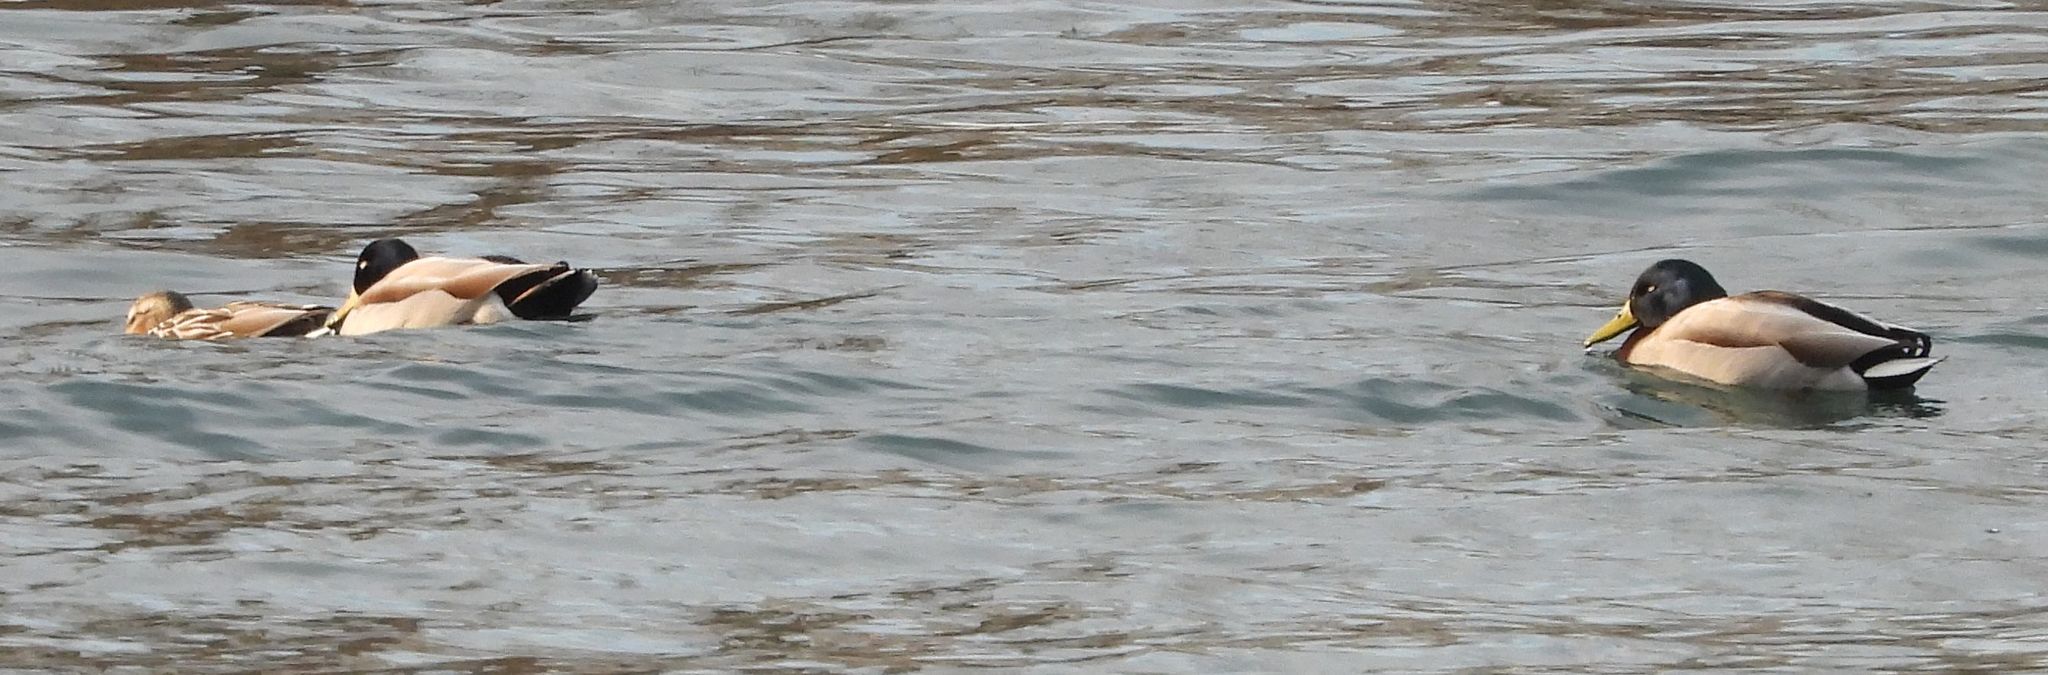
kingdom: Animalia
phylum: Chordata
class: Aves
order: Anseriformes
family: Anatidae
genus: Anas
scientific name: Anas platyrhynchos
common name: Mallard
